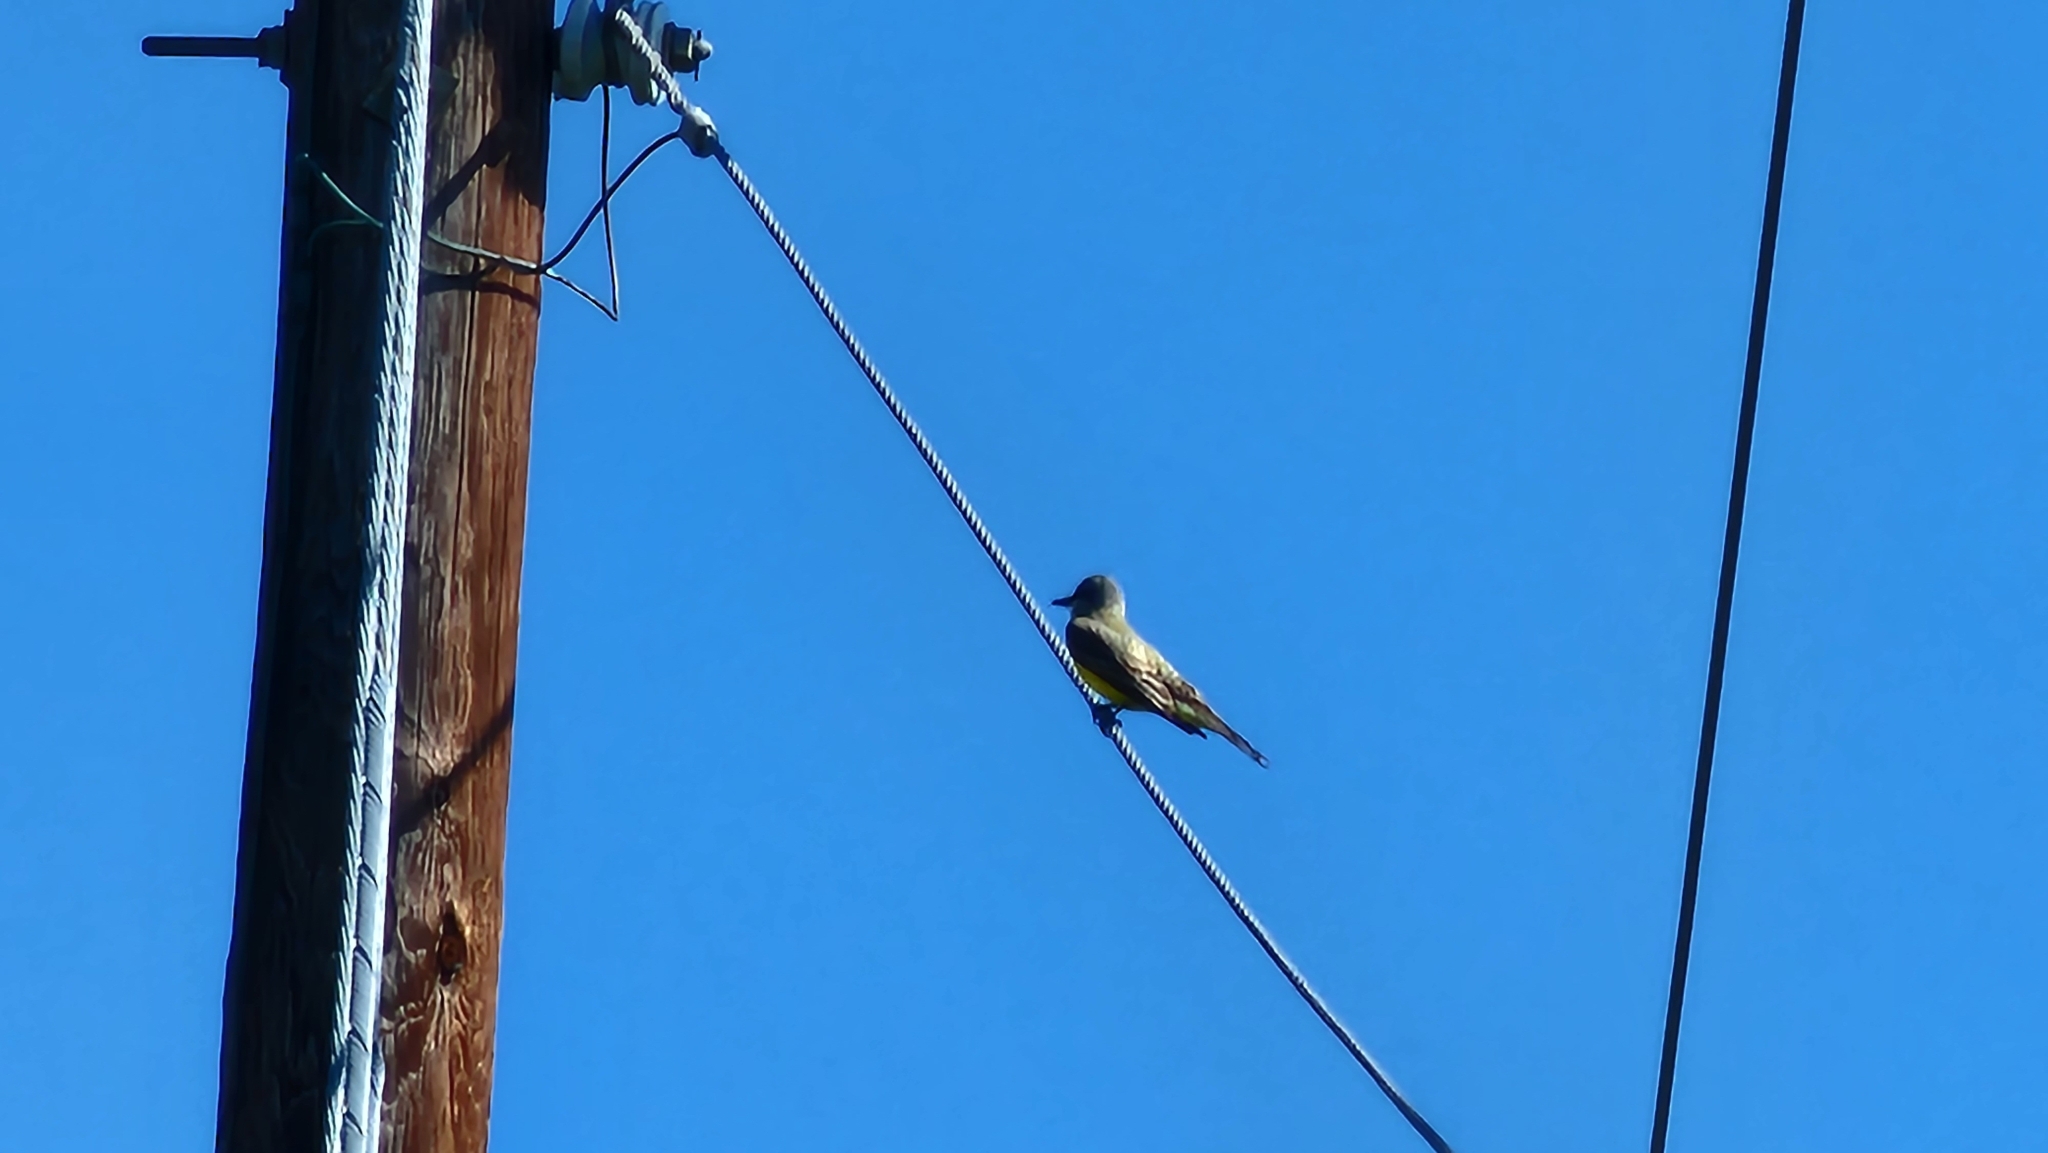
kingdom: Animalia
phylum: Chordata
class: Aves
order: Passeriformes
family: Tyrannidae
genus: Tyrannus
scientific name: Tyrannus verticalis
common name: Western kingbird
